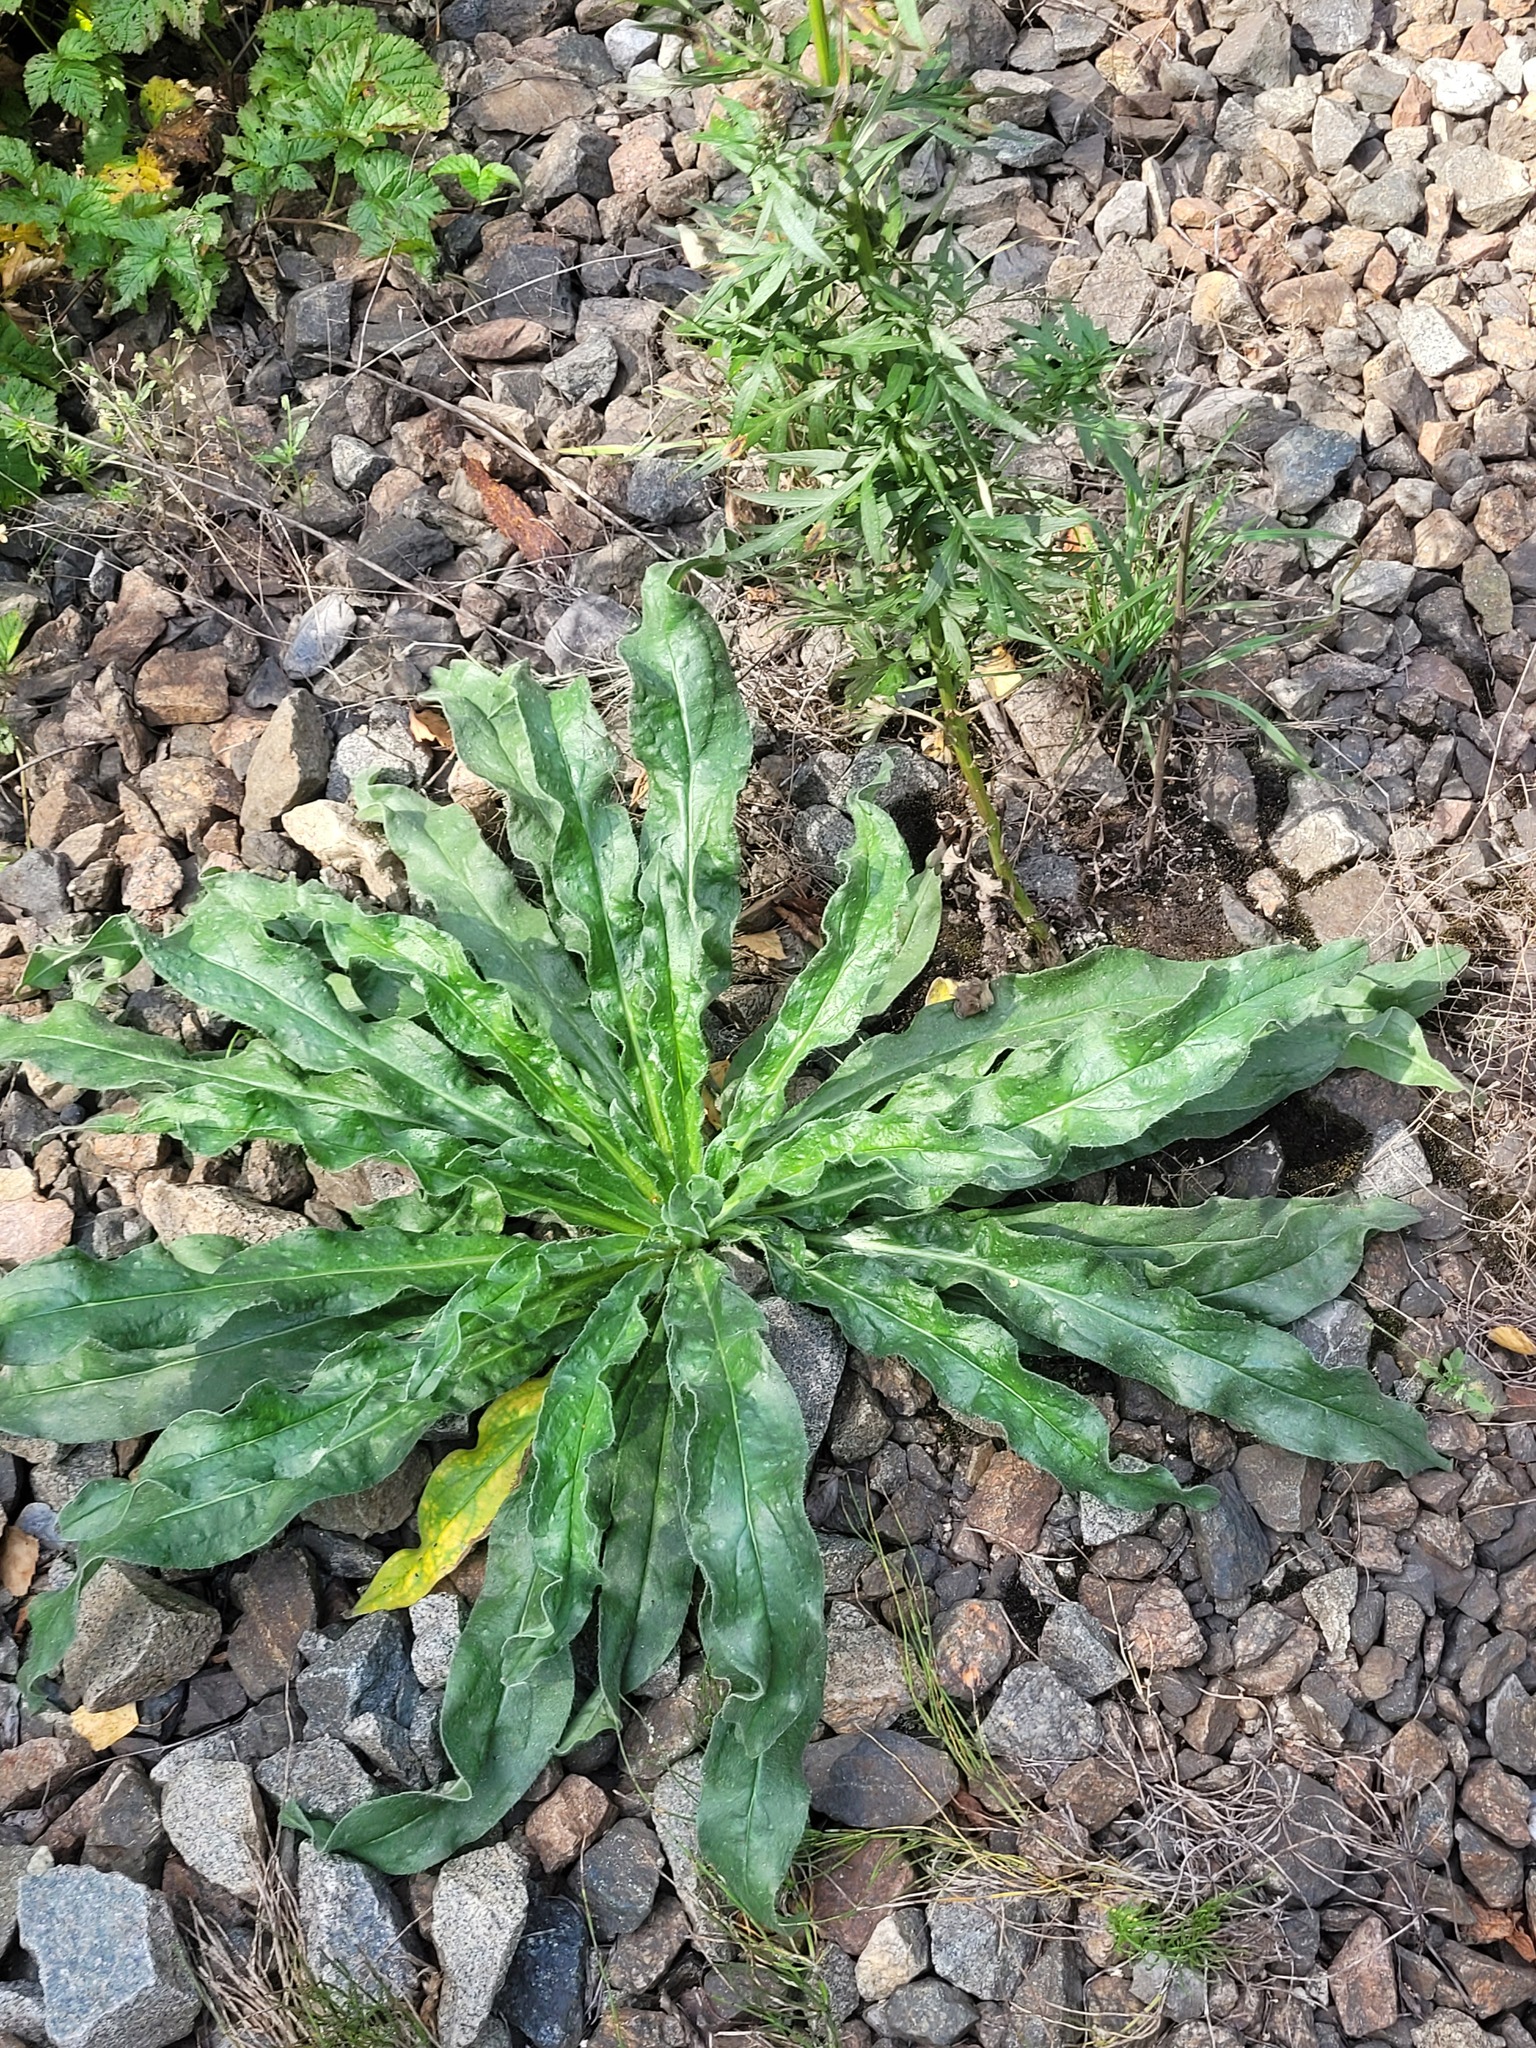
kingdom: Plantae
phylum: Tracheophyta
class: Magnoliopsida
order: Boraginales
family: Boraginaceae
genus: Echium
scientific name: Echium vulgare
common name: Common viper's bugloss
